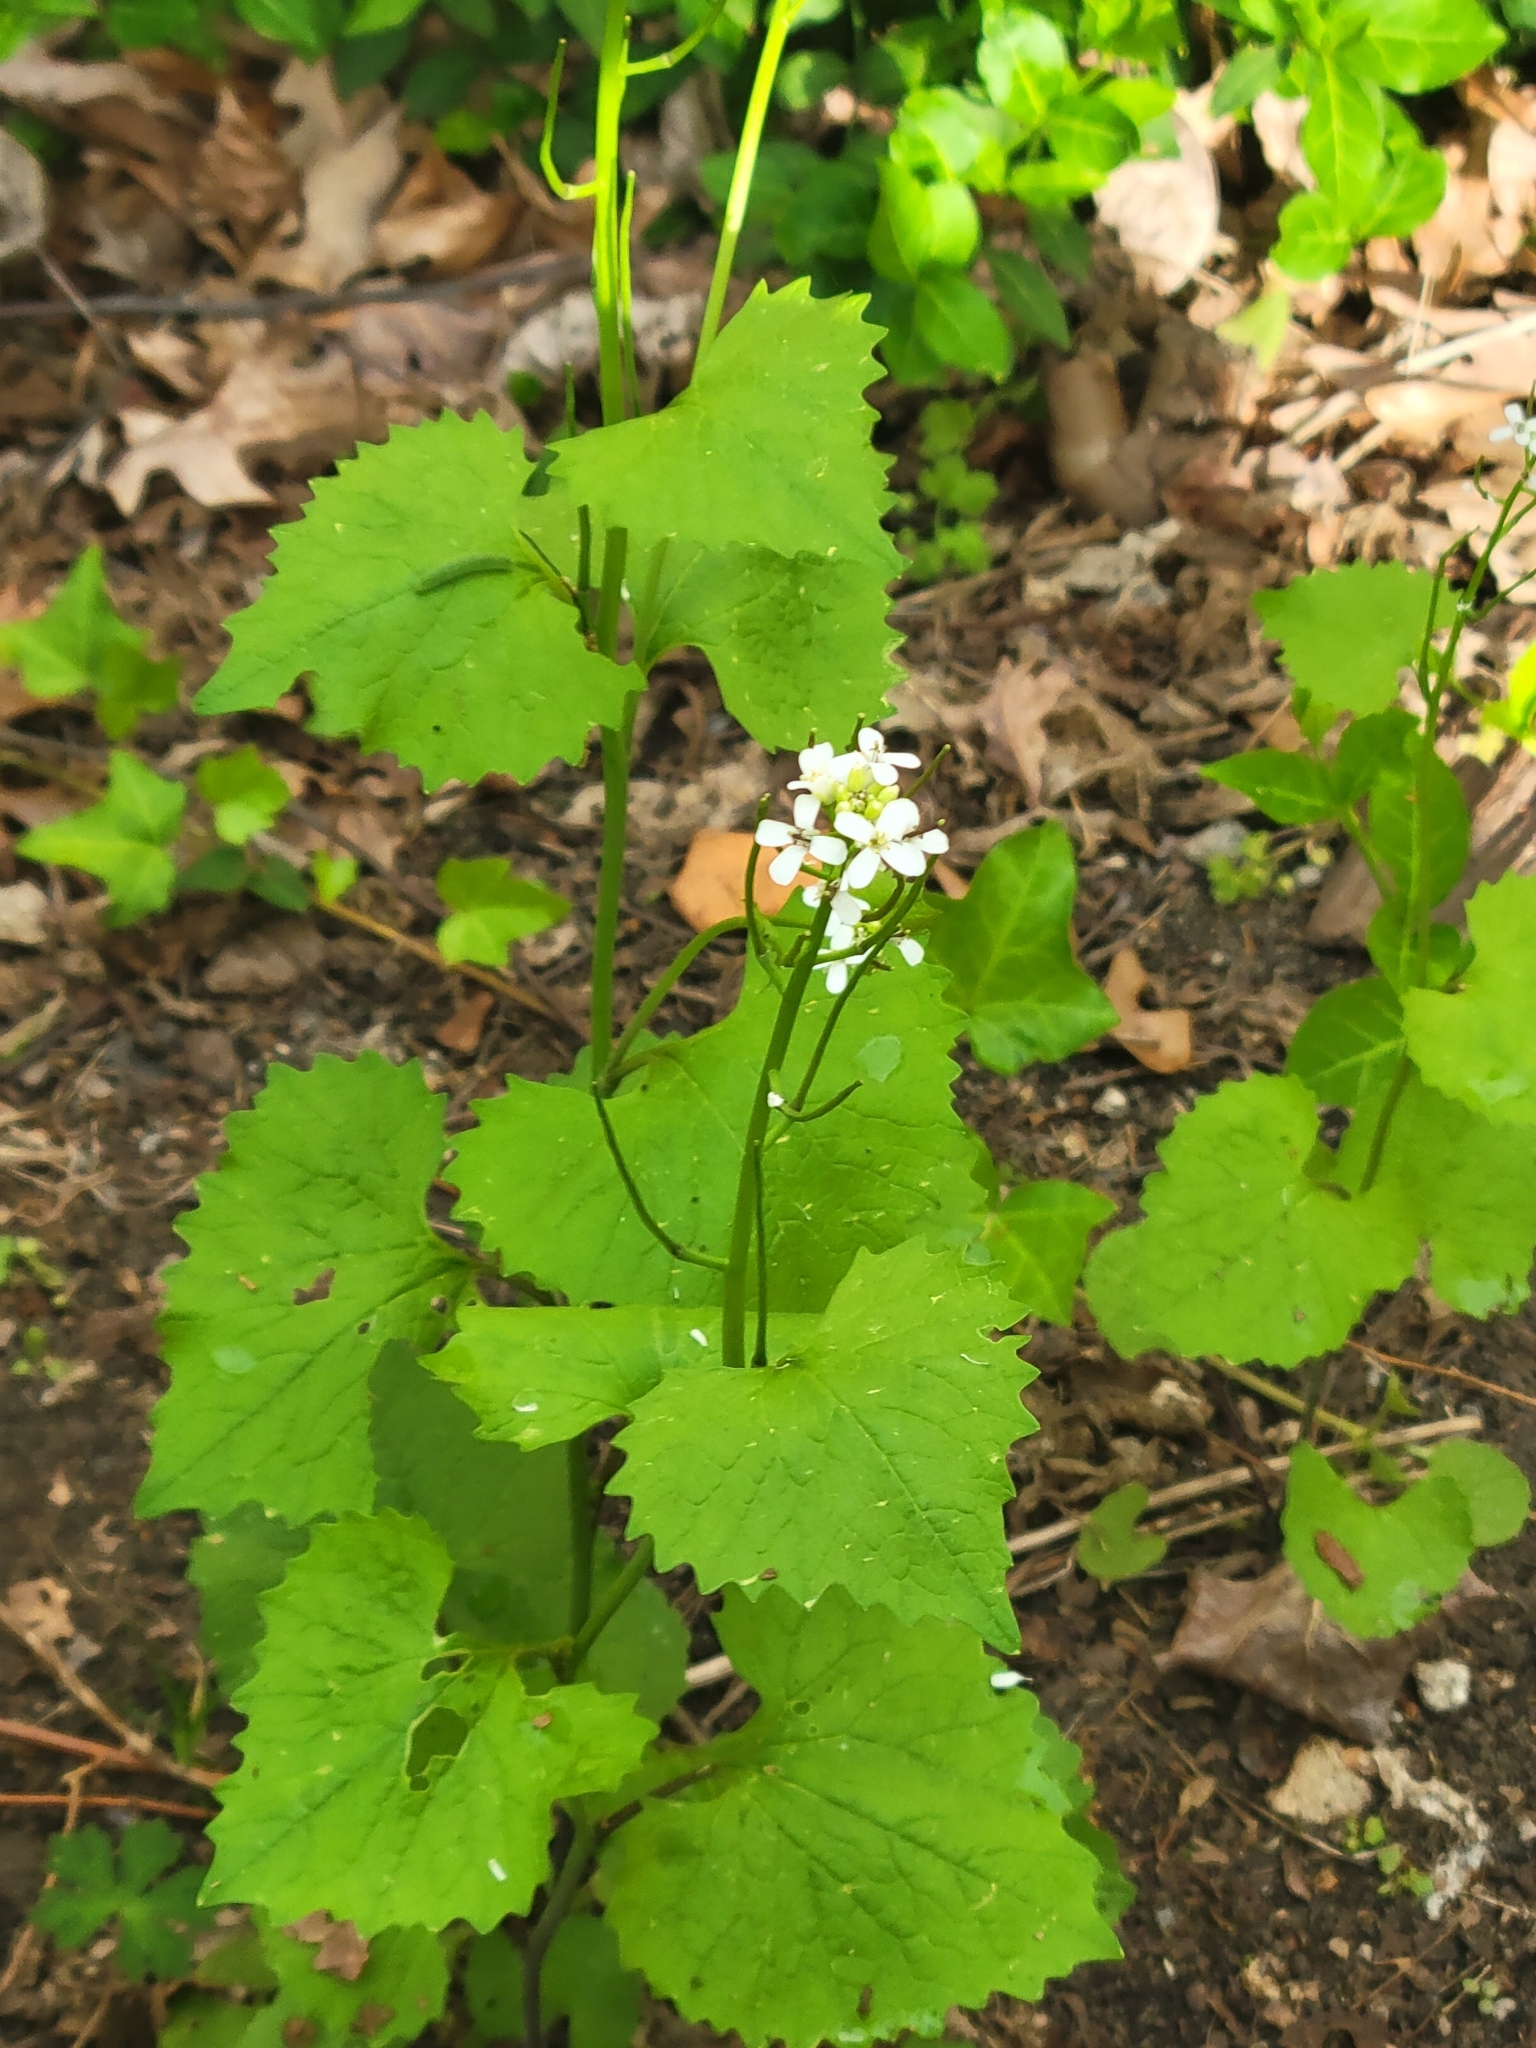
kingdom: Plantae
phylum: Tracheophyta
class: Magnoliopsida
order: Brassicales
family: Brassicaceae
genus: Alliaria
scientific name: Alliaria petiolata
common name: Garlic mustard
